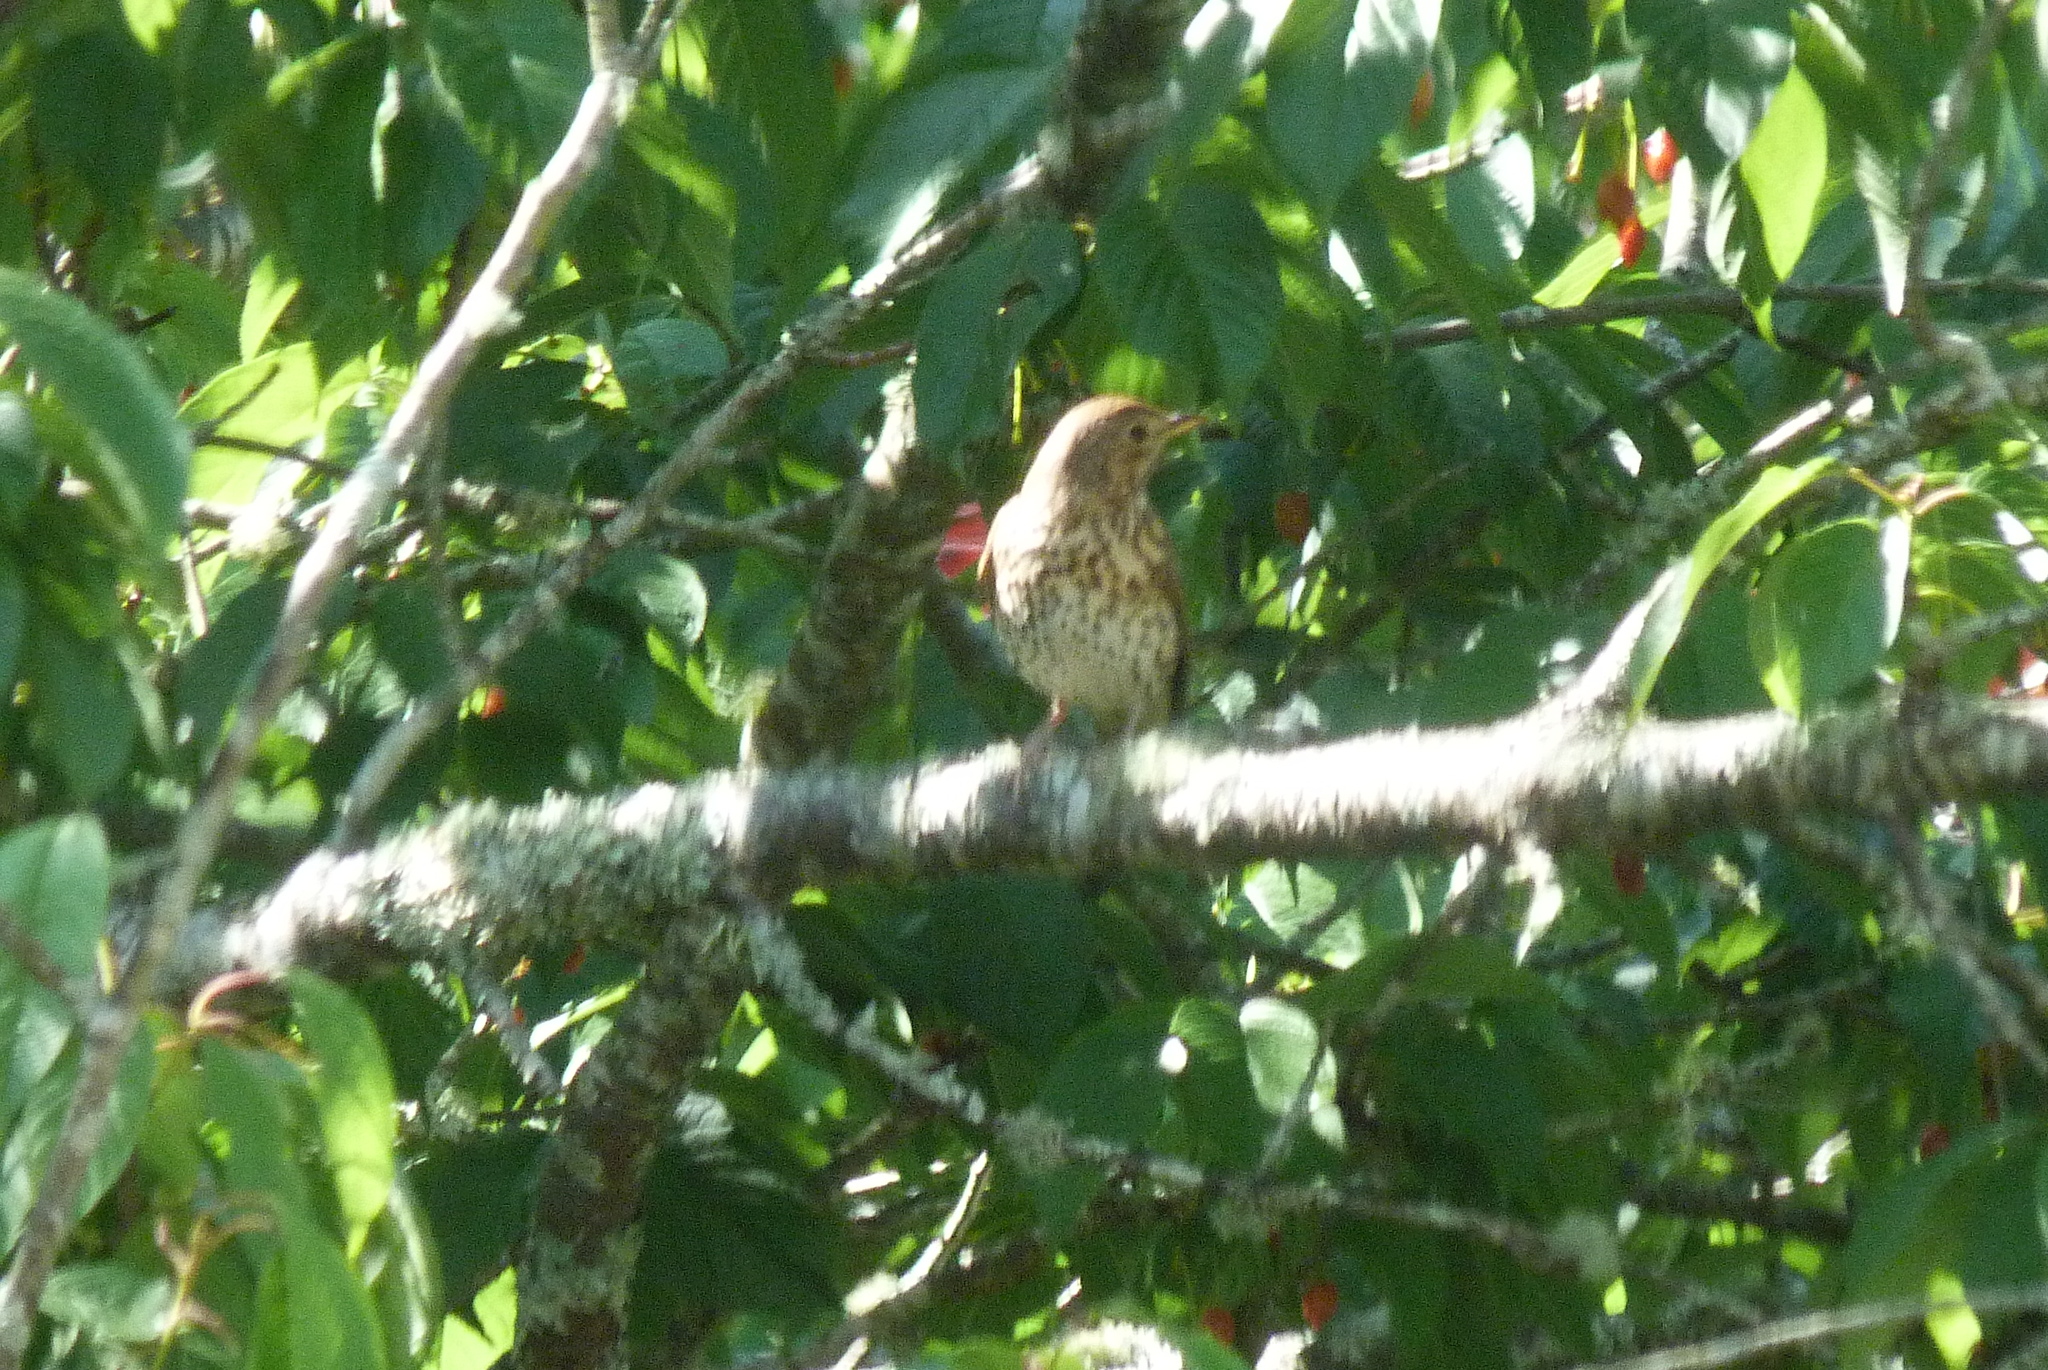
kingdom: Animalia
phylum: Chordata
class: Aves
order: Passeriformes
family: Turdidae
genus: Turdus
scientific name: Turdus philomelos
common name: Song thrush
